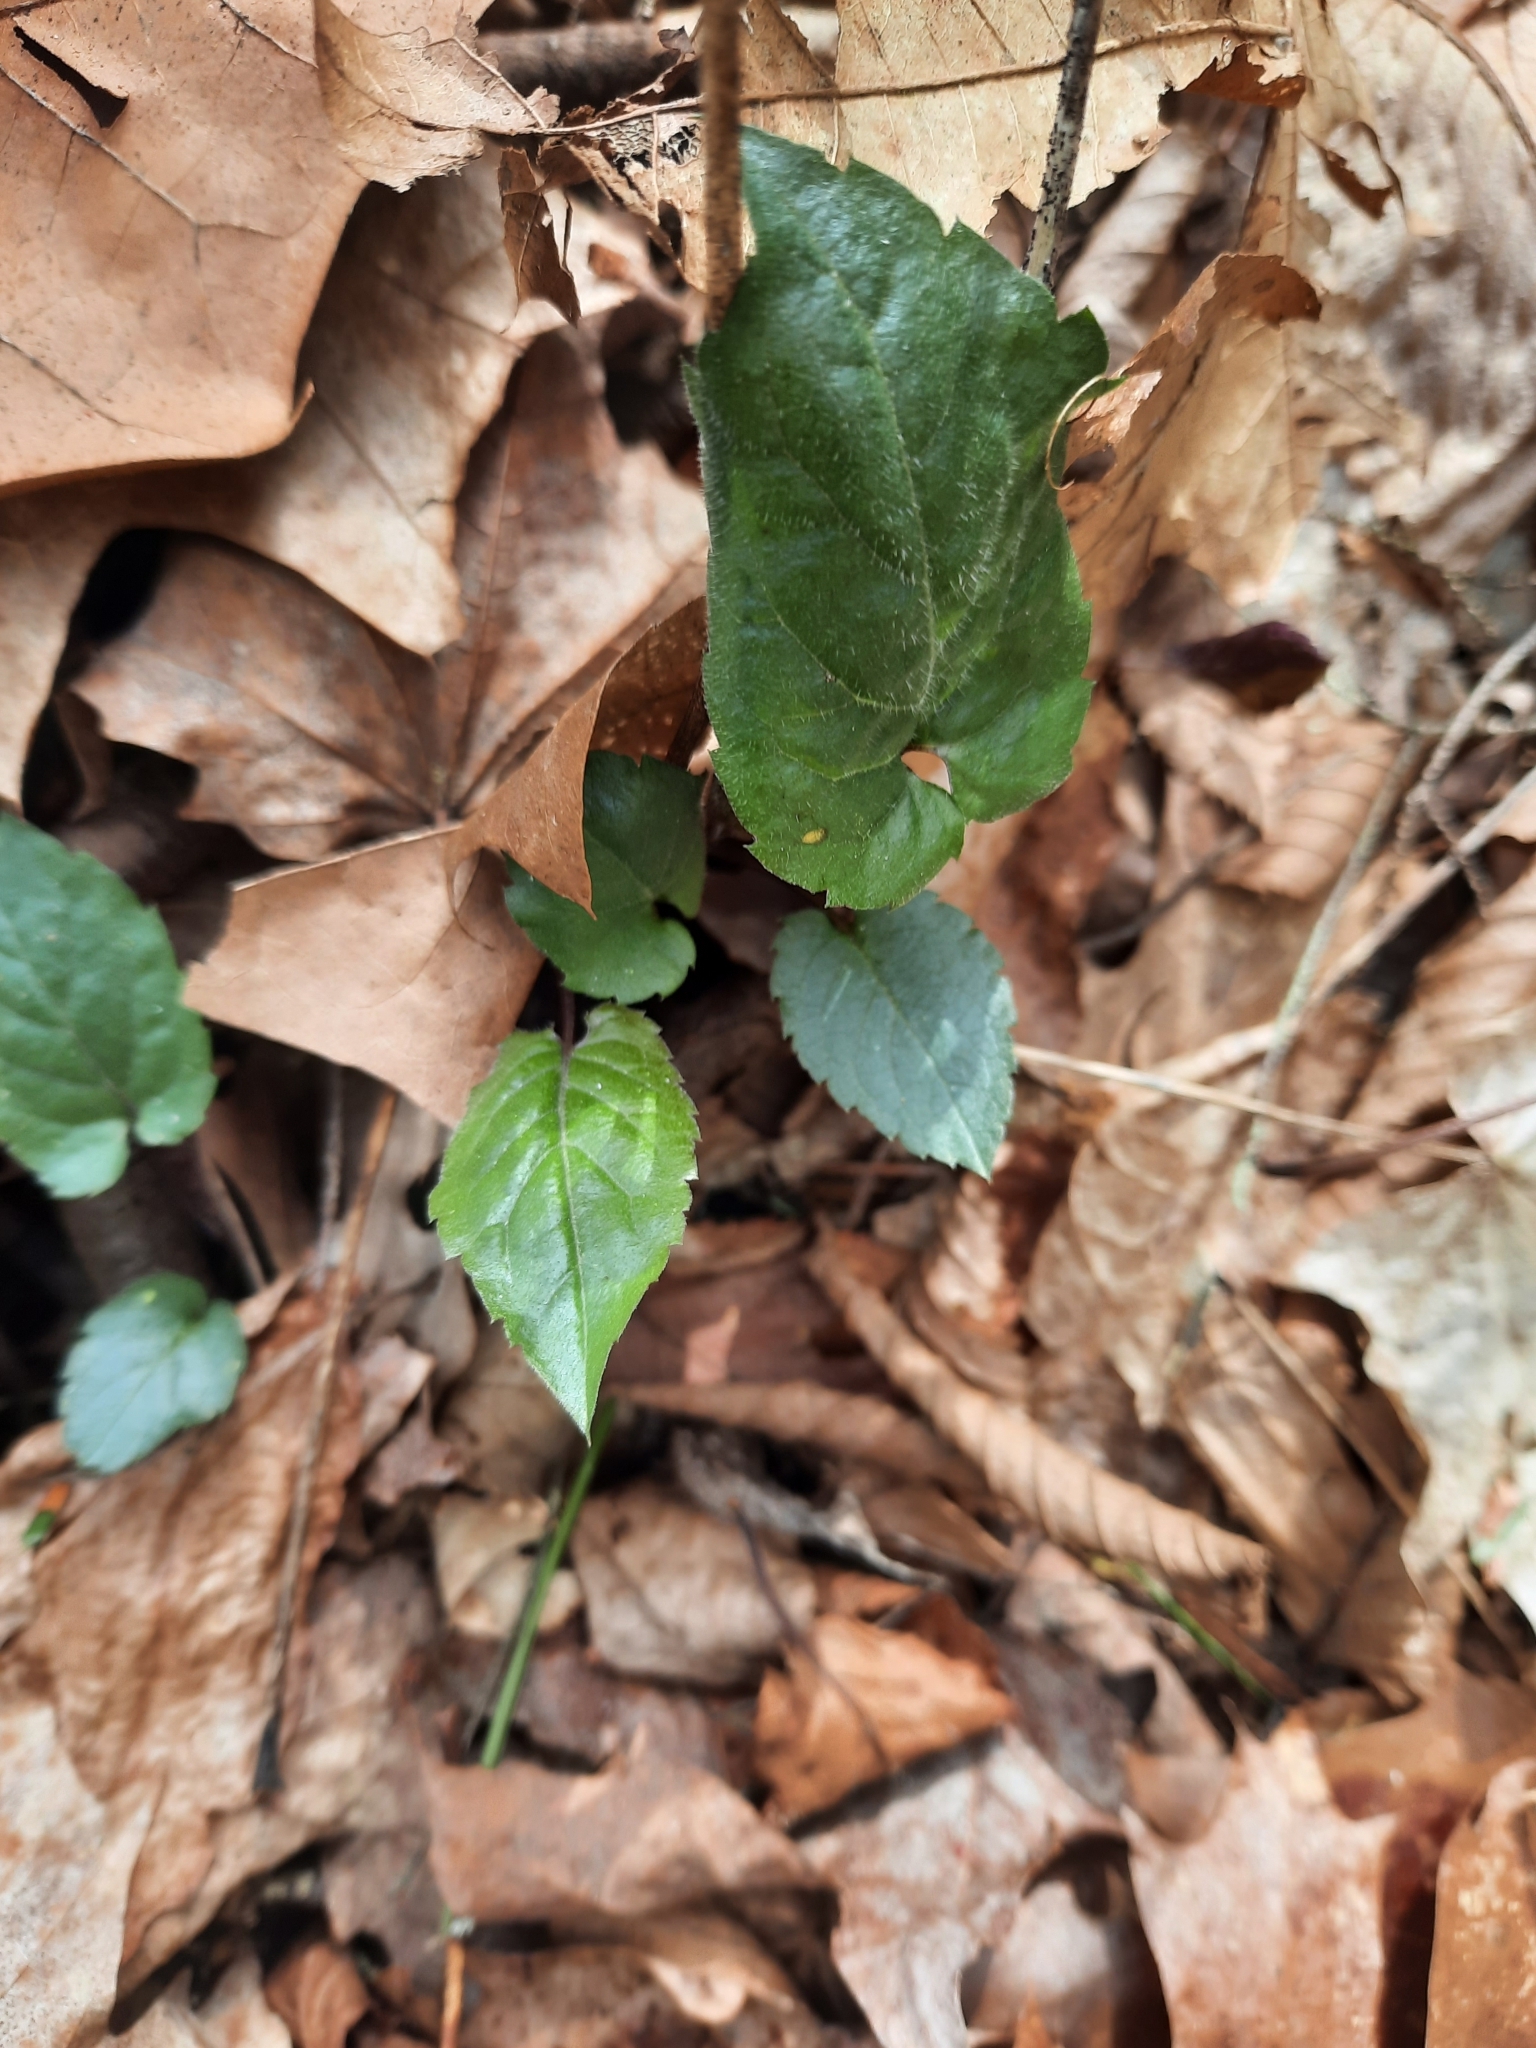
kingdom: Plantae
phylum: Tracheophyta
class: Magnoliopsida
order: Asterales
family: Asteraceae
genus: Eurybia
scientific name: Eurybia divaricata
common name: White wood aster
